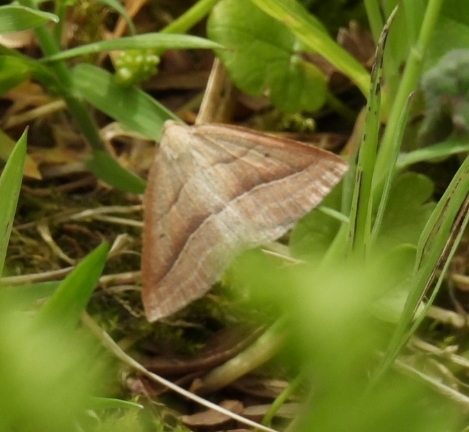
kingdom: Animalia
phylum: Arthropoda
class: Insecta
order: Lepidoptera
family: Pterophoridae
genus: Pterophorus
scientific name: Pterophorus Petrophora chlorosata
